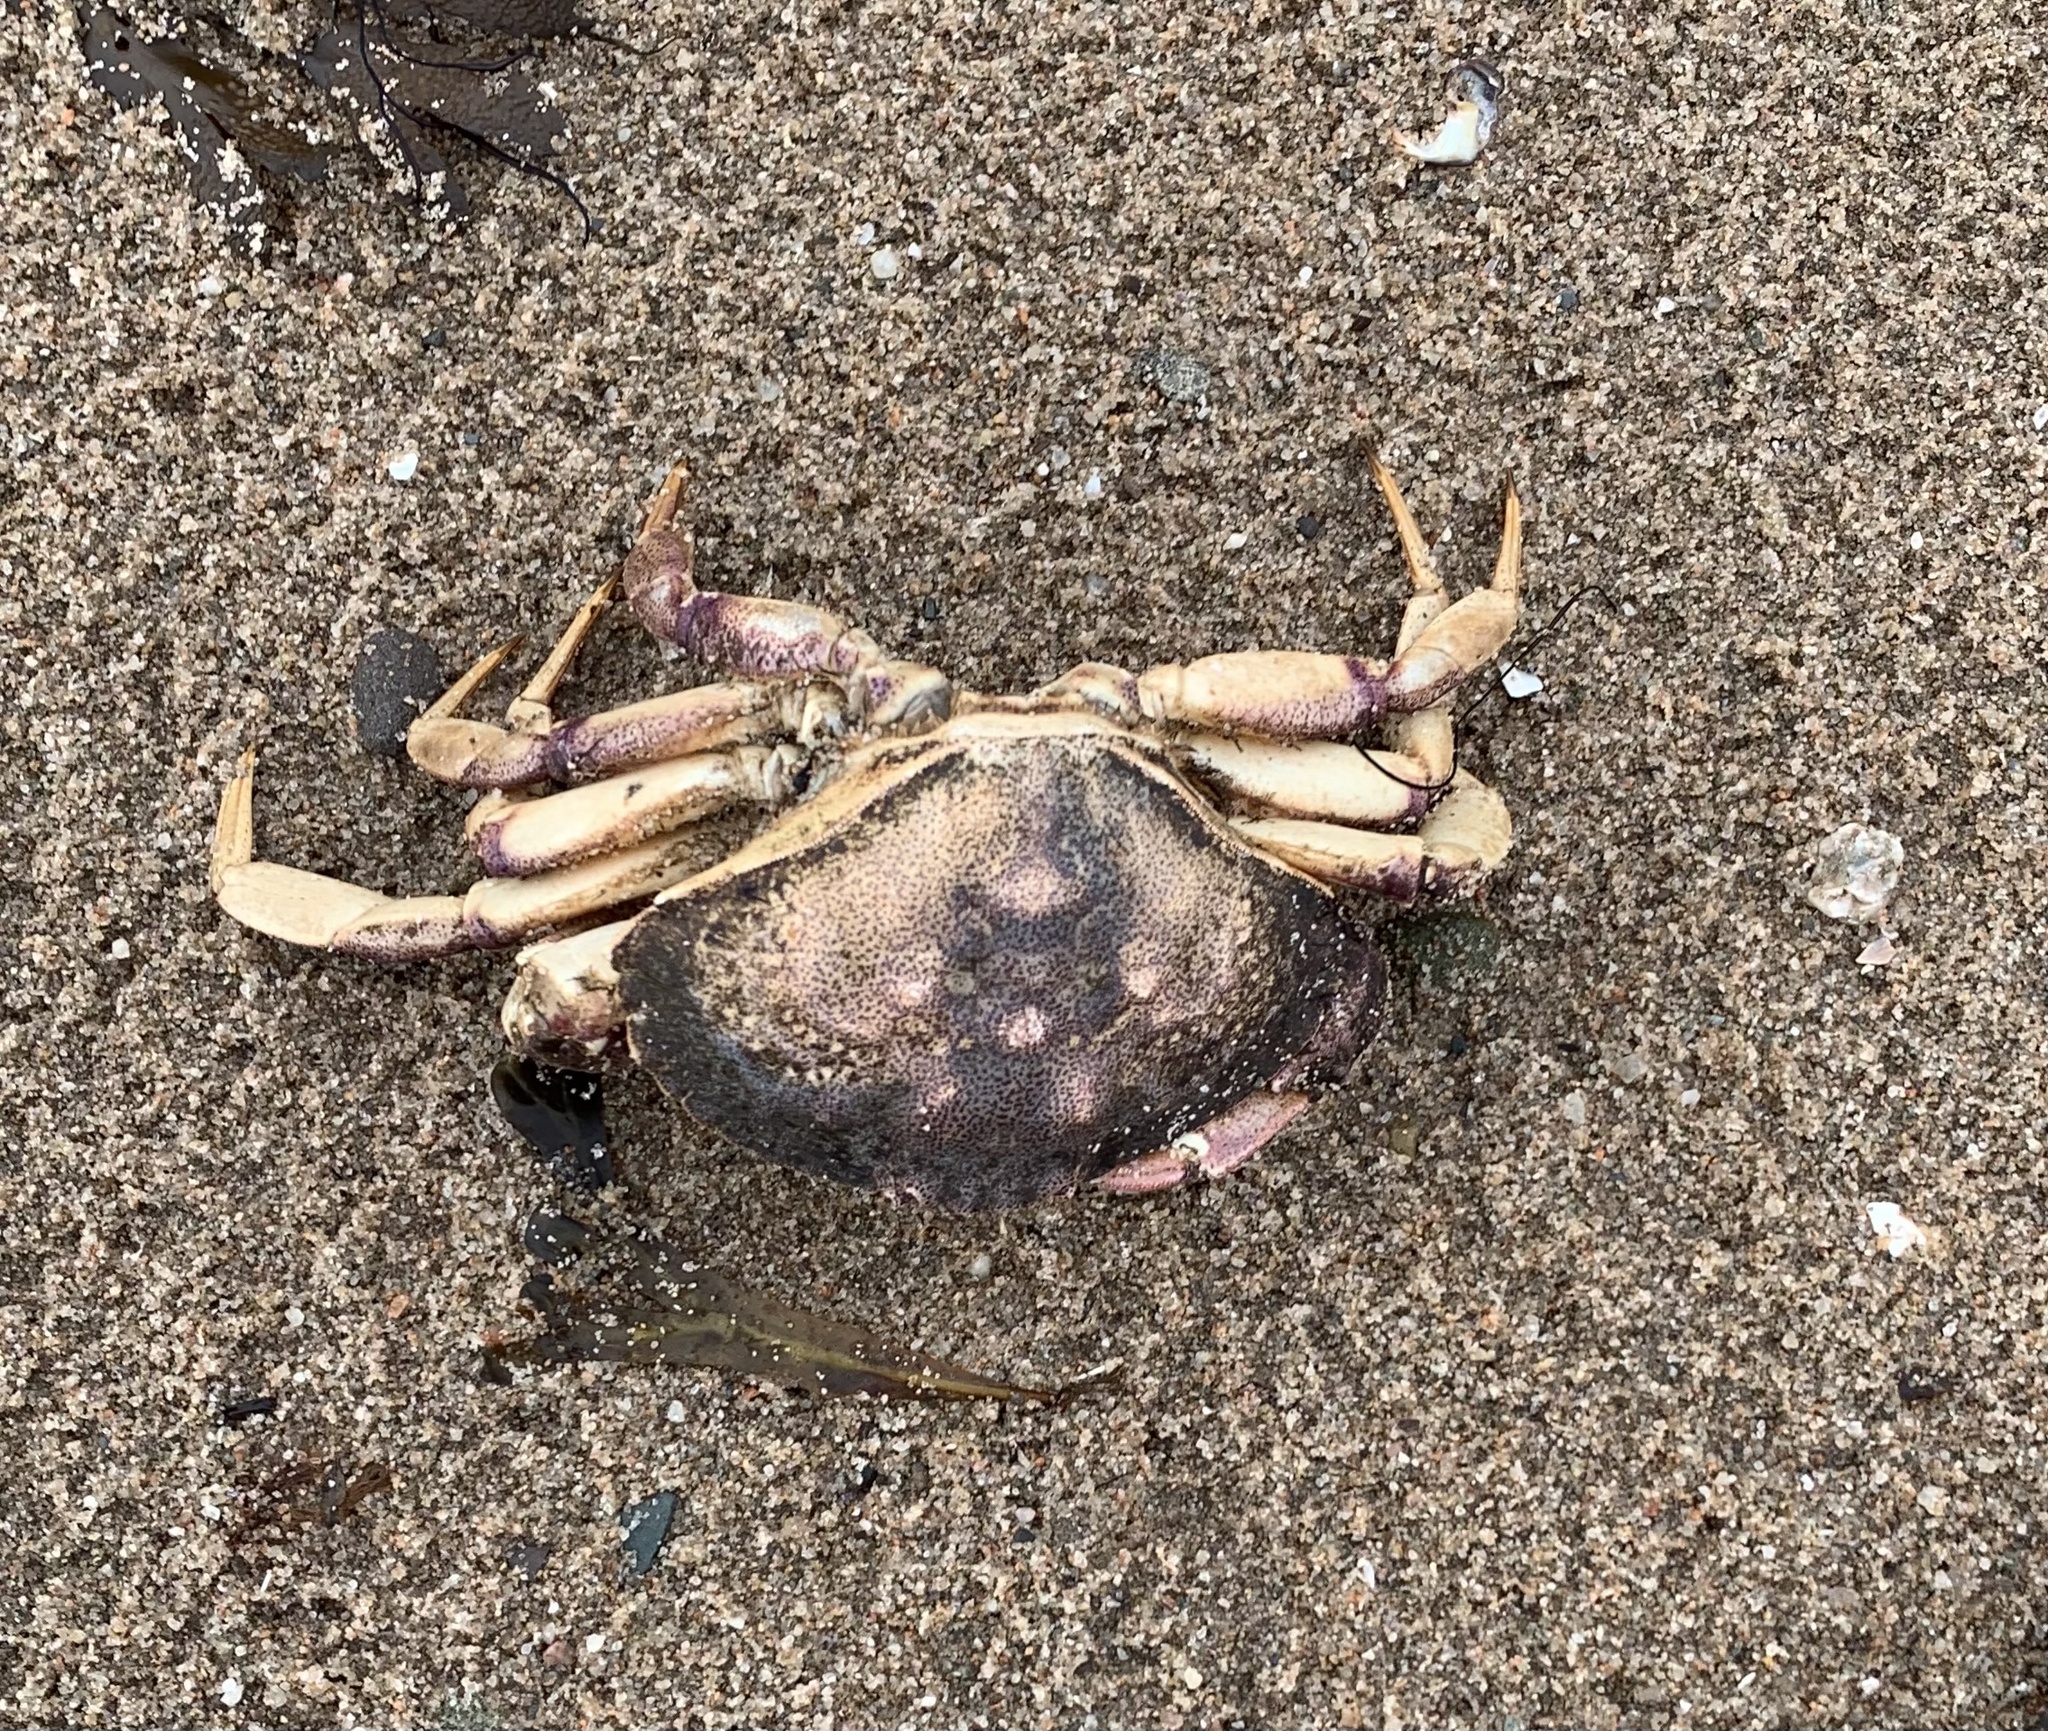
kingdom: Animalia
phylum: Arthropoda
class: Malacostraca
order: Decapoda
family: Cancridae
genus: Cancer
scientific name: Cancer irroratus
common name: Atlantic rock crab
